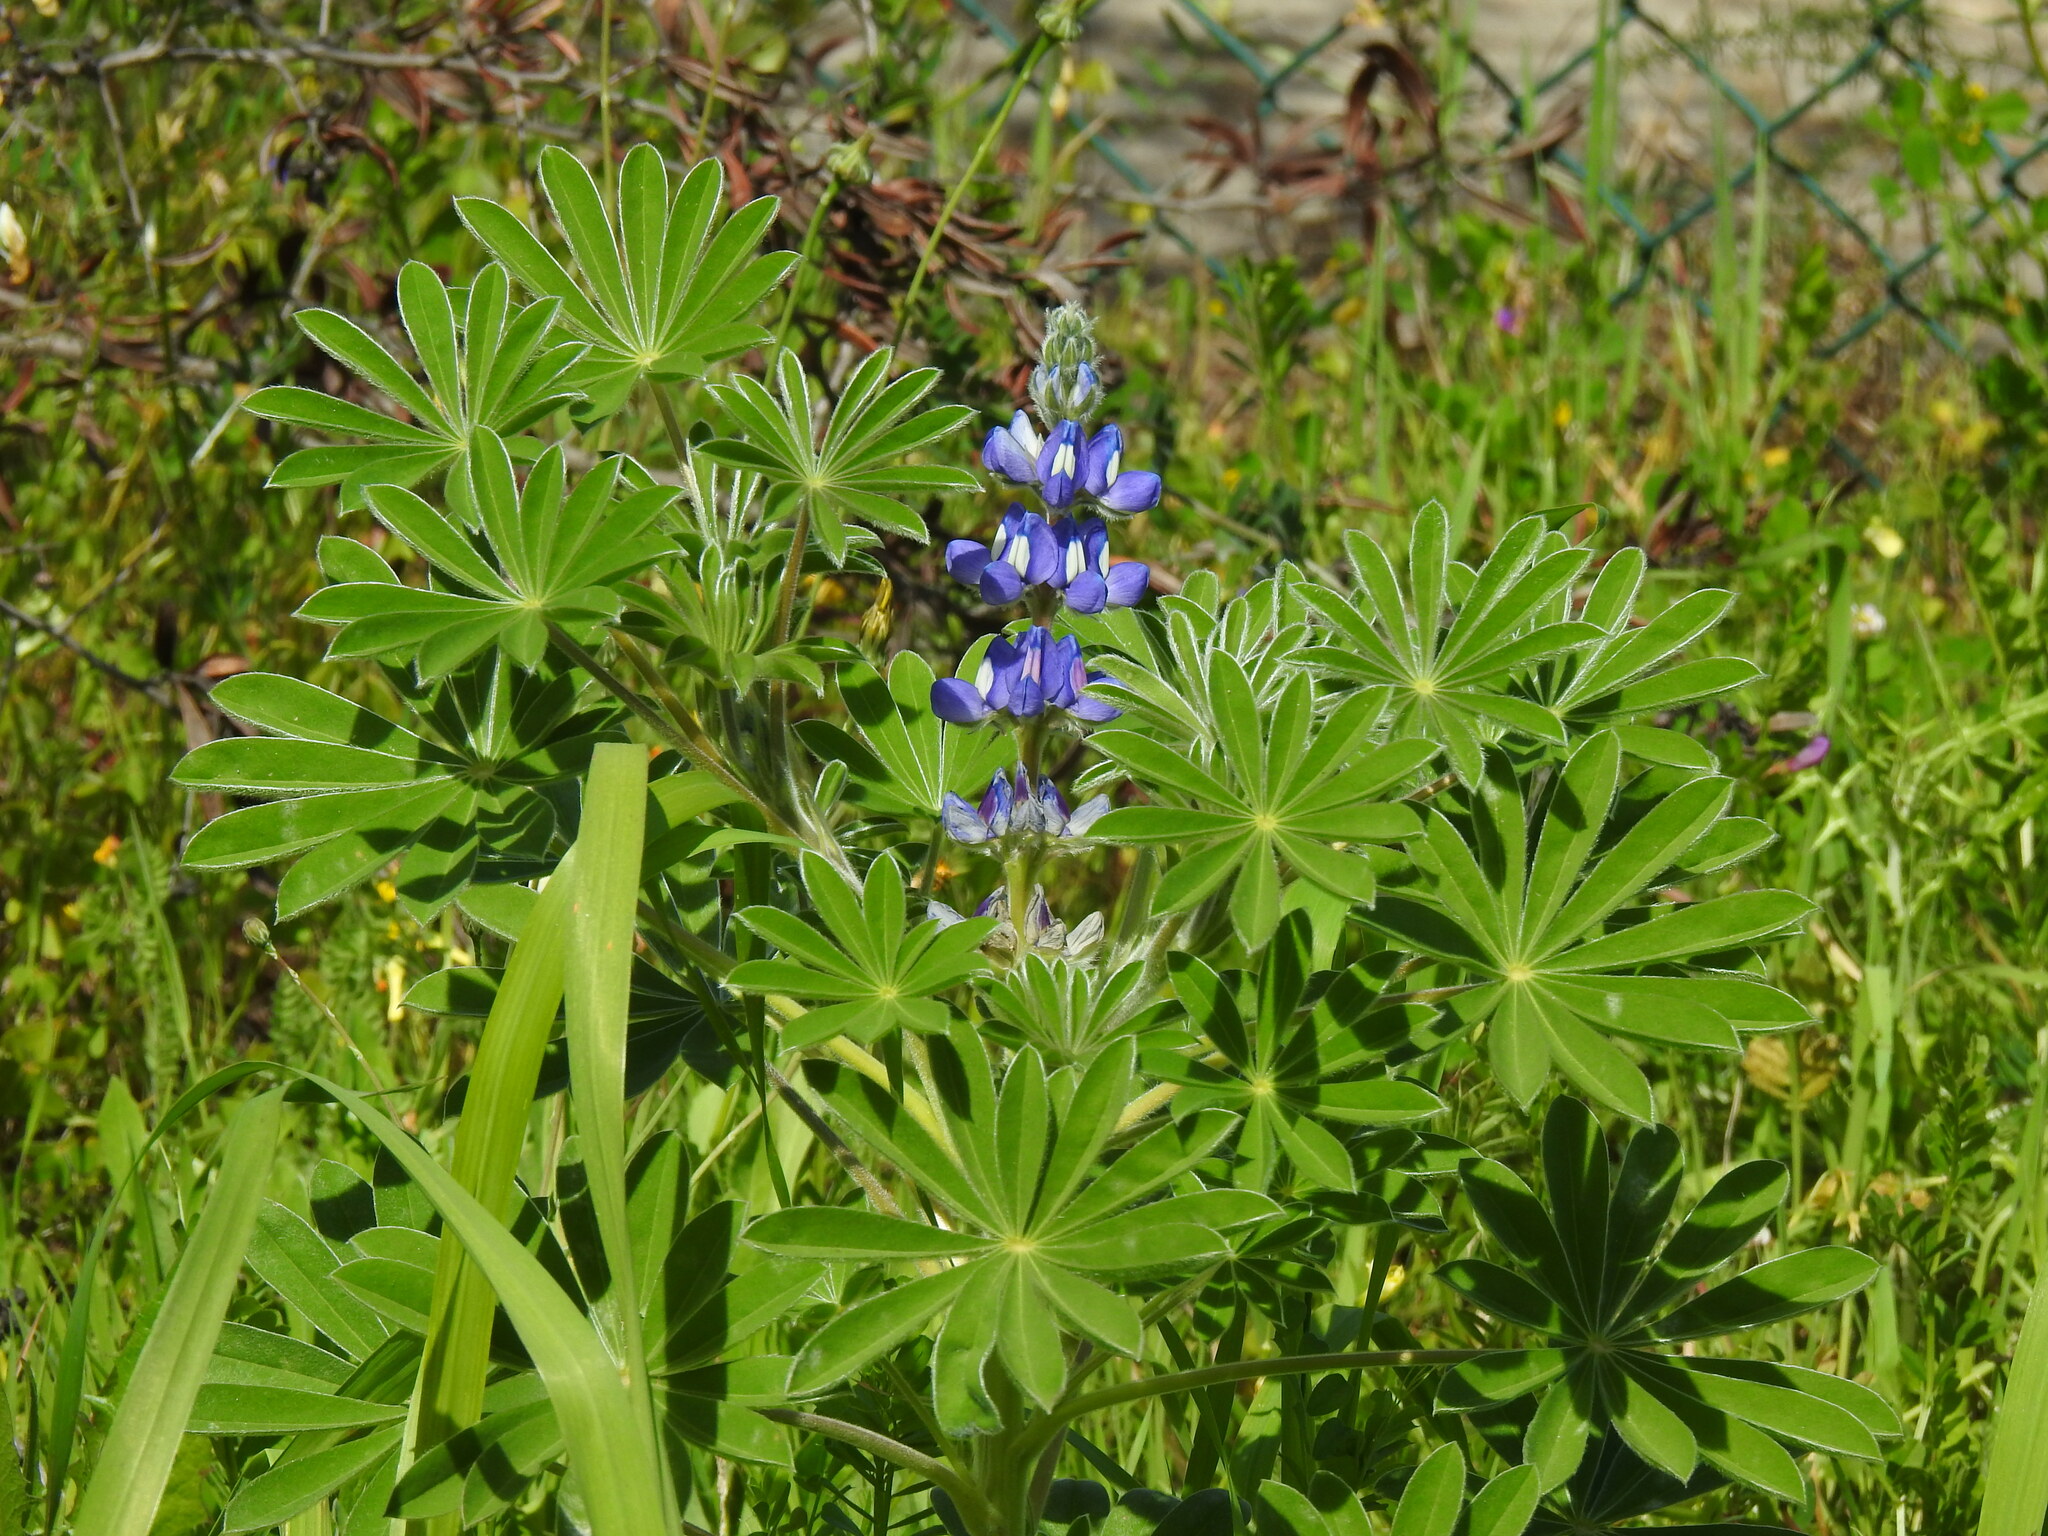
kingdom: Plantae
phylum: Tracheophyta
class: Magnoliopsida
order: Fabales
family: Fabaceae
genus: Lupinus
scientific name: Lupinus cosentinii
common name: Hairy blue lupin
